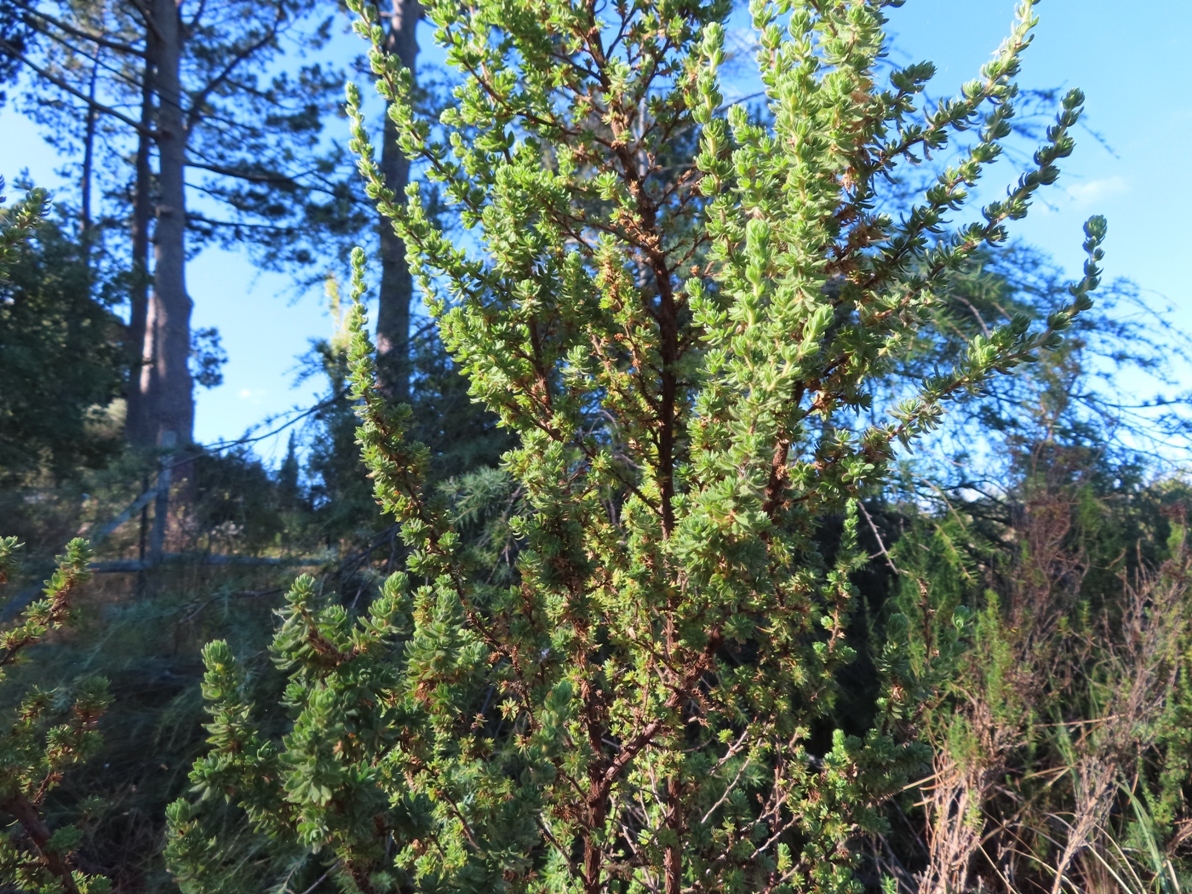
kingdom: Plantae
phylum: Tracheophyta
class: Magnoliopsida
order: Rosales
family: Rosaceae
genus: Cliffortia
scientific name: Cliffortia polygonifolia
